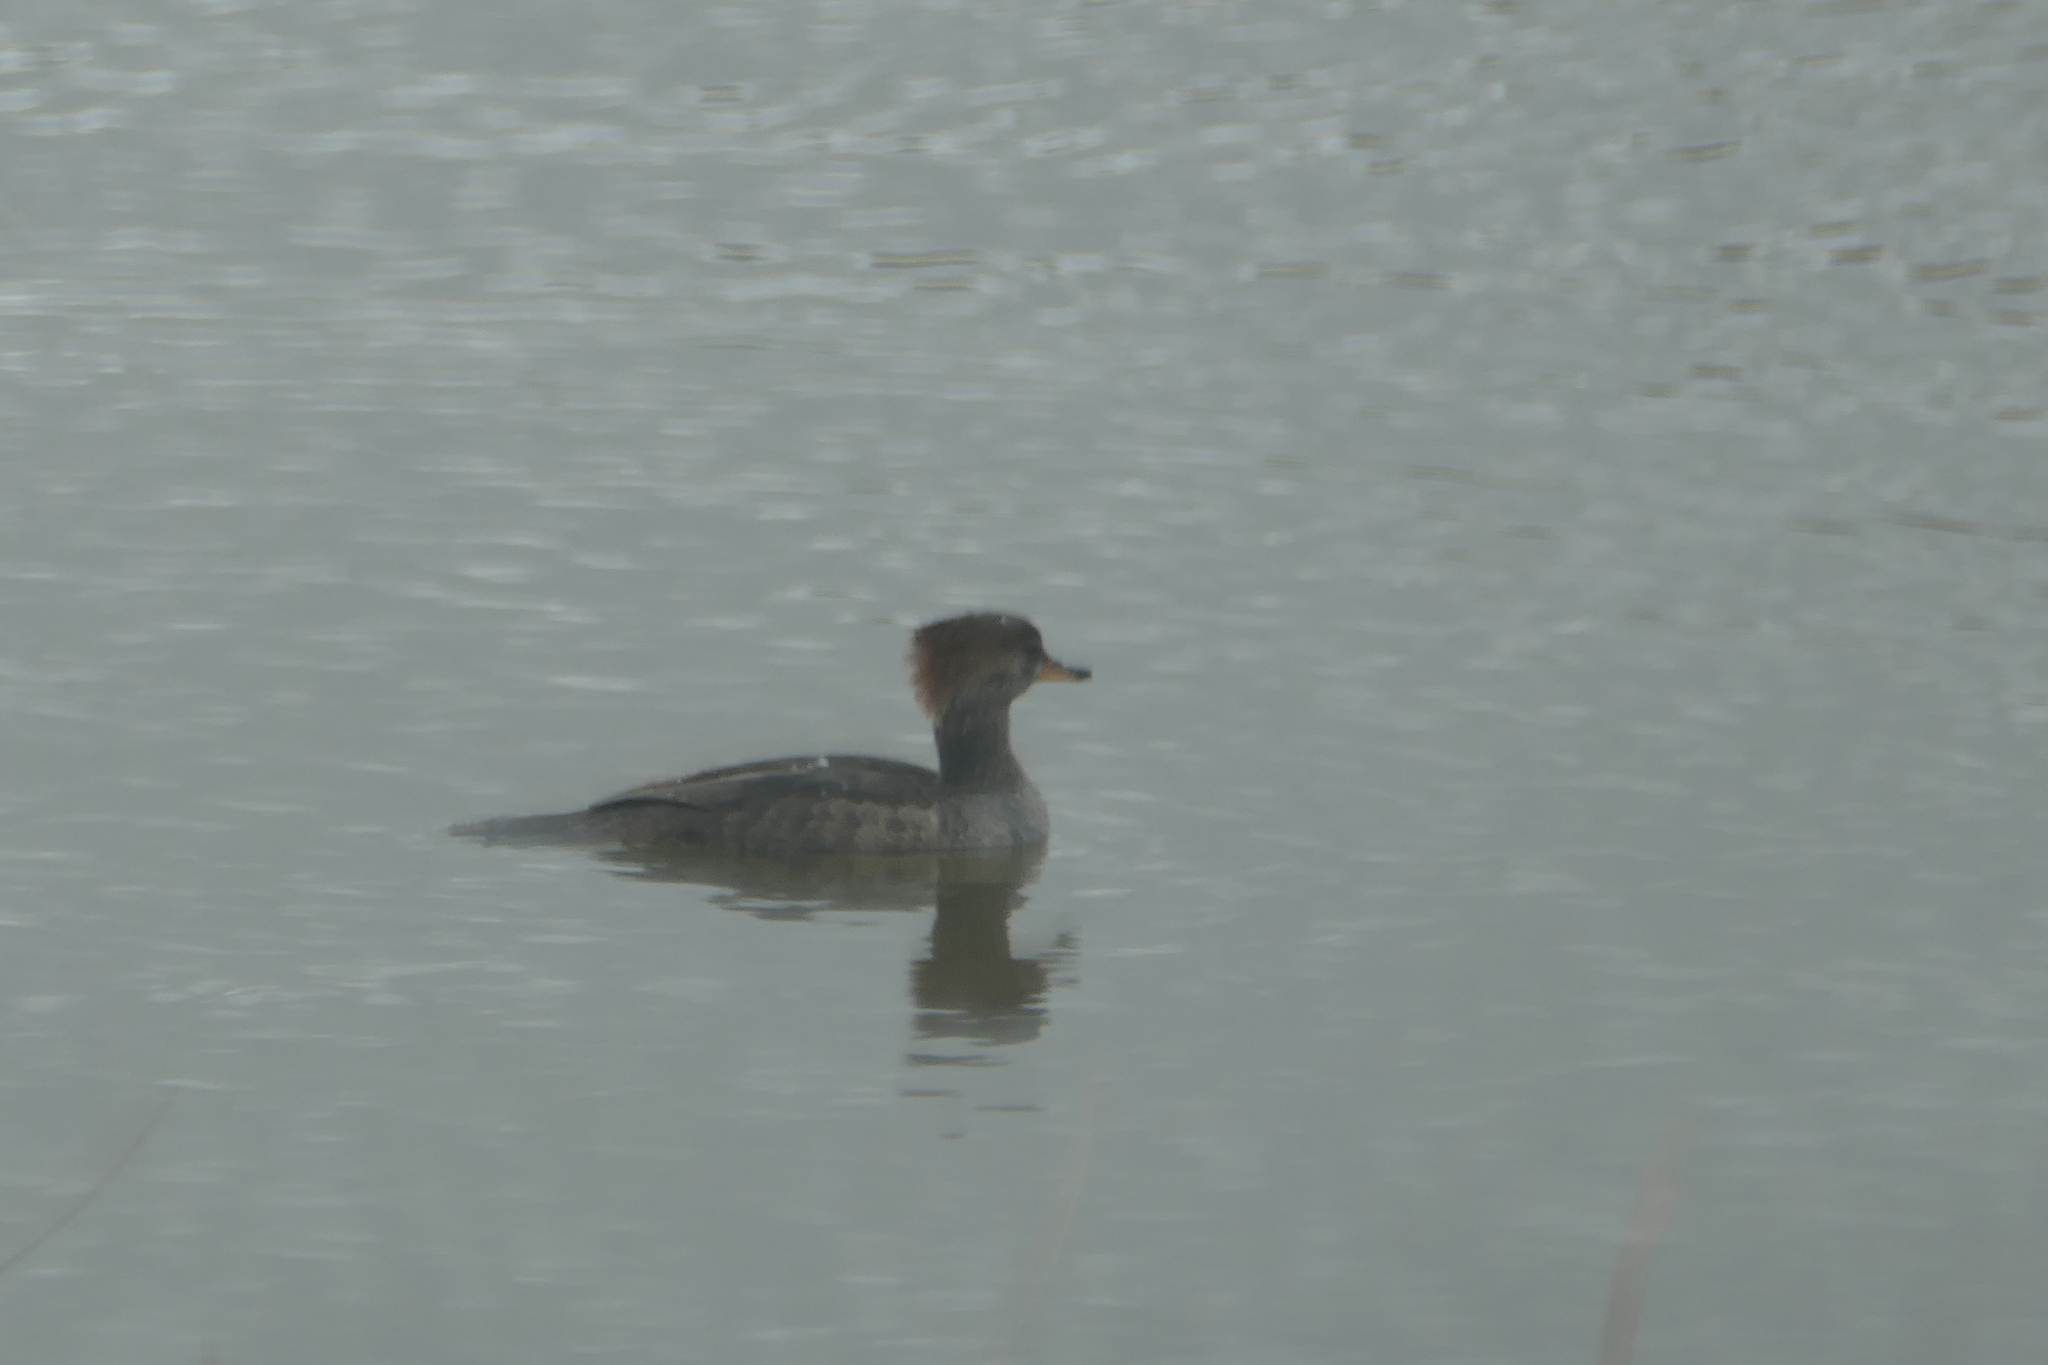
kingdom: Animalia
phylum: Chordata
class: Aves
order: Anseriformes
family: Anatidae
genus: Lophodytes
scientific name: Lophodytes cucullatus
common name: Hooded merganser
